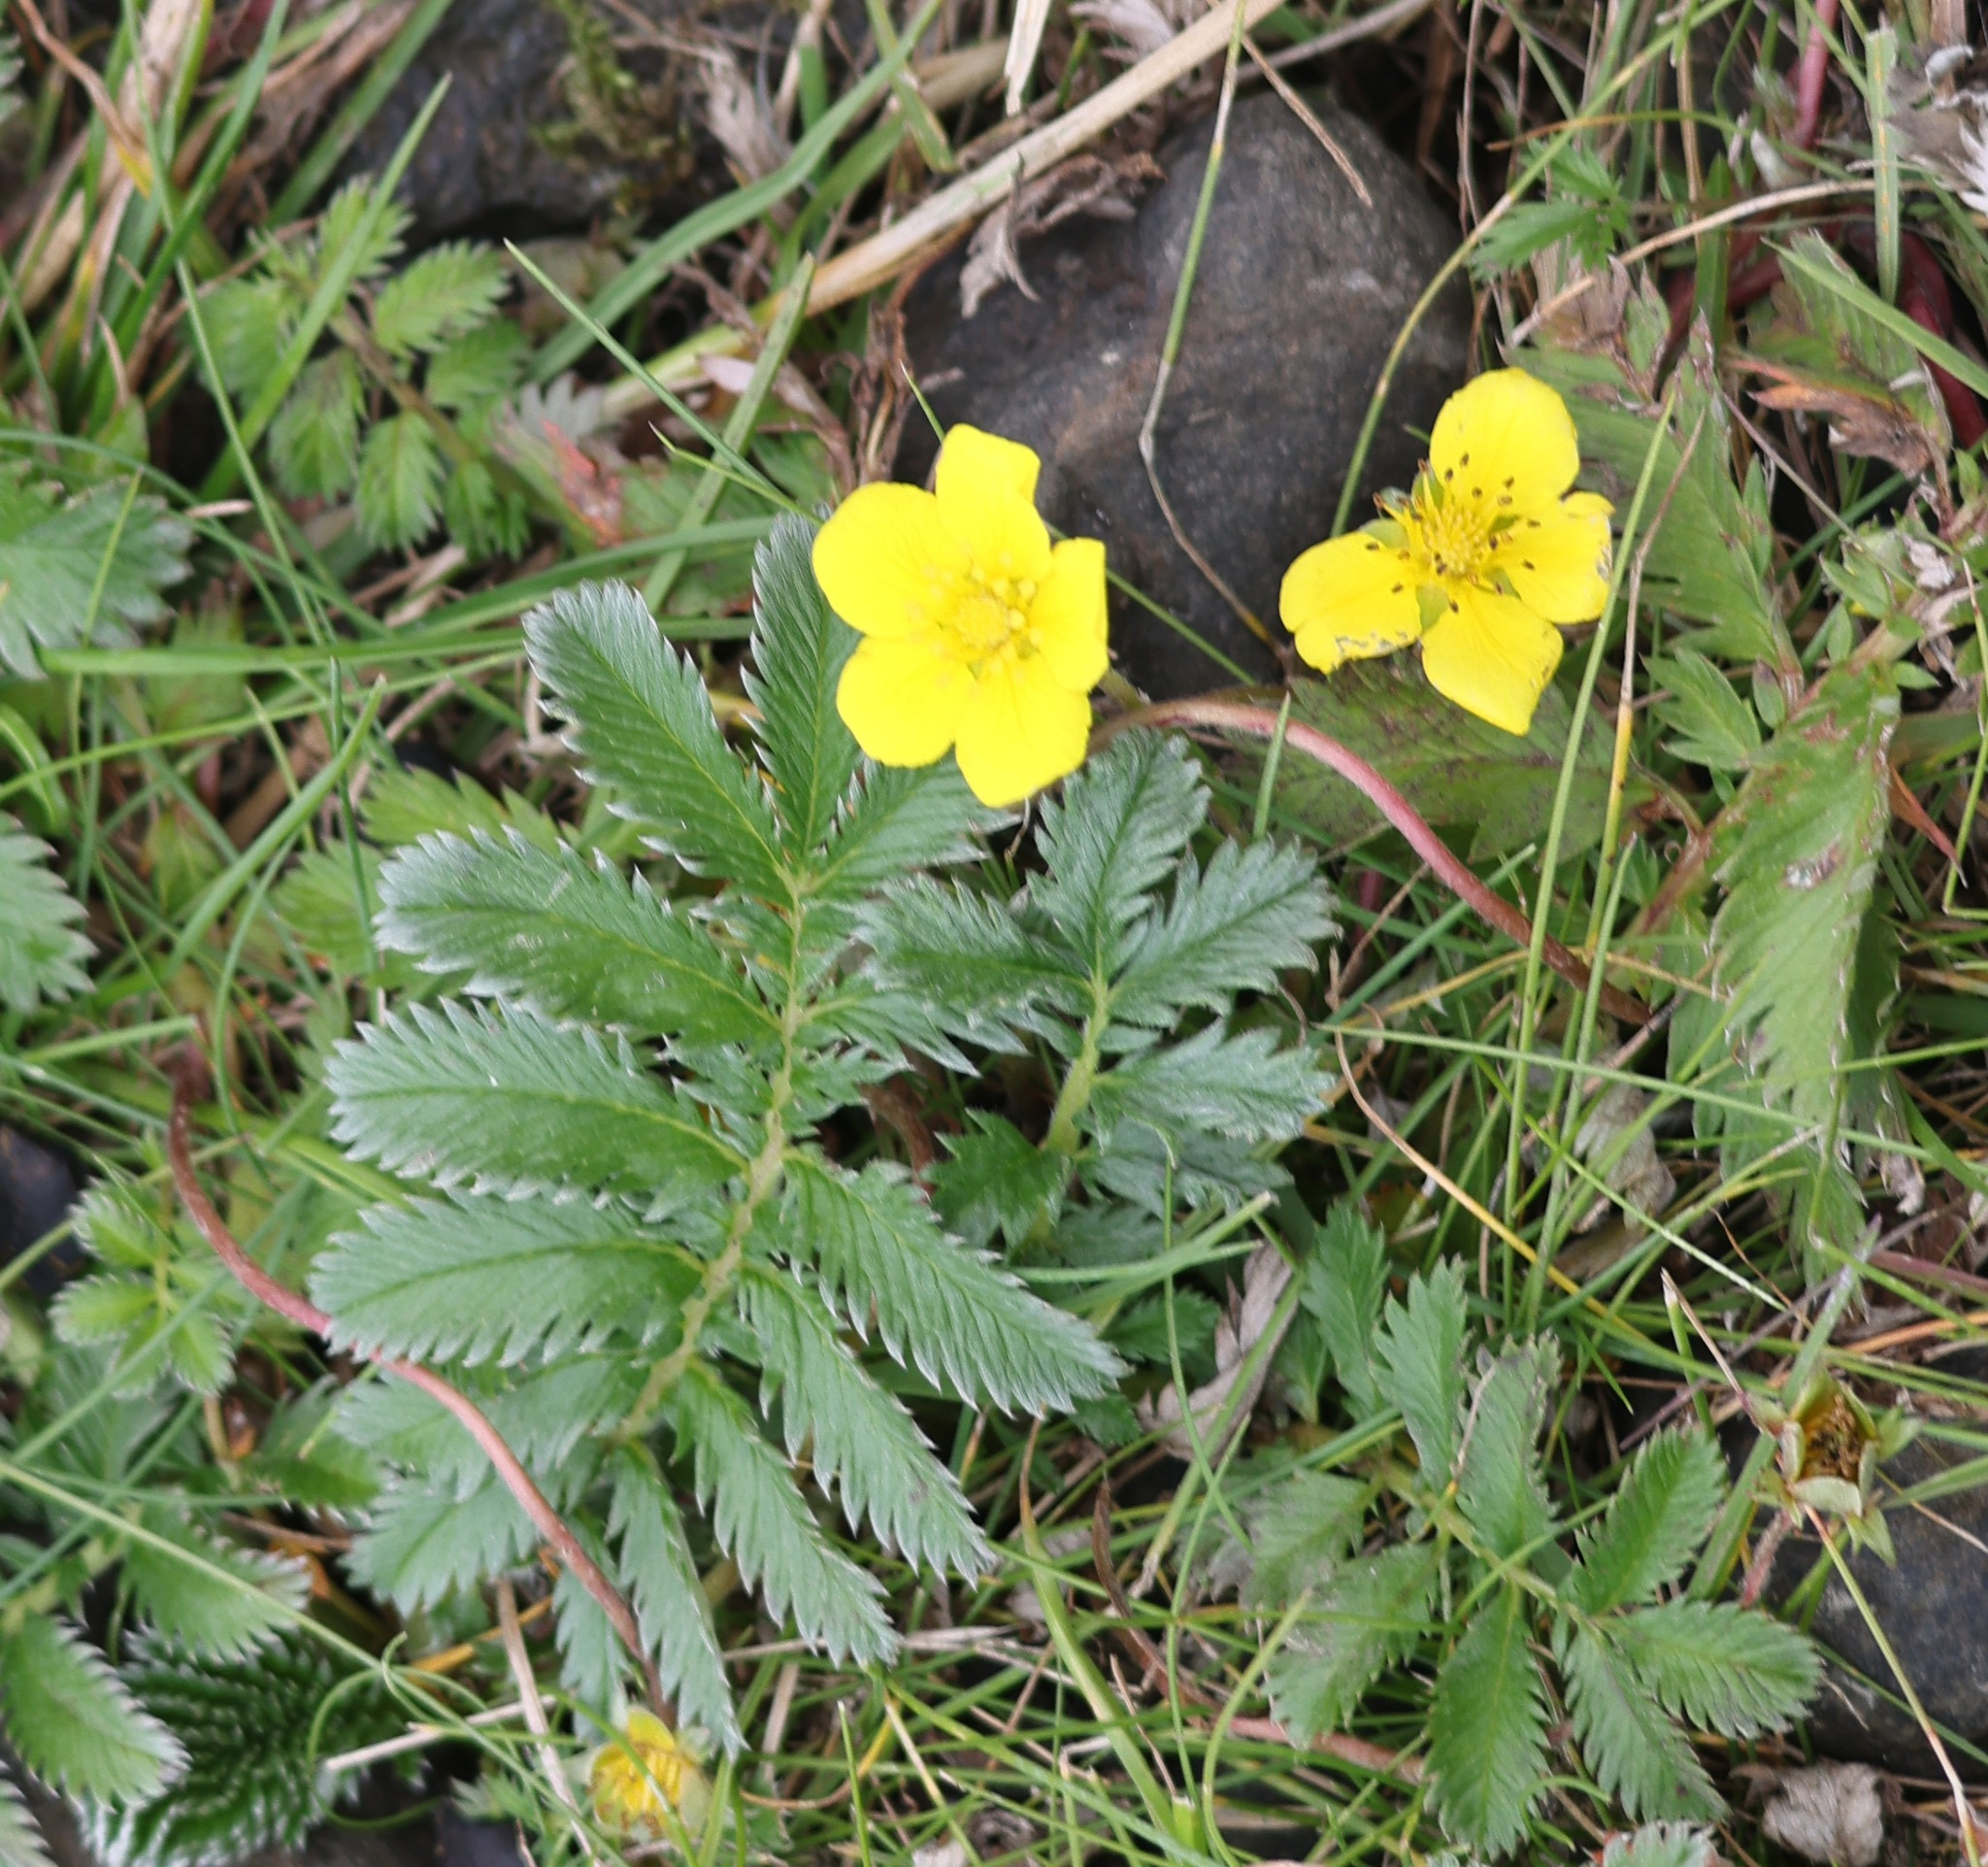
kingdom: Plantae
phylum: Tracheophyta
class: Magnoliopsida
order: Rosales
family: Rosaceae
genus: Argentina
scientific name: Argentina anserina
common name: Common silverweed
